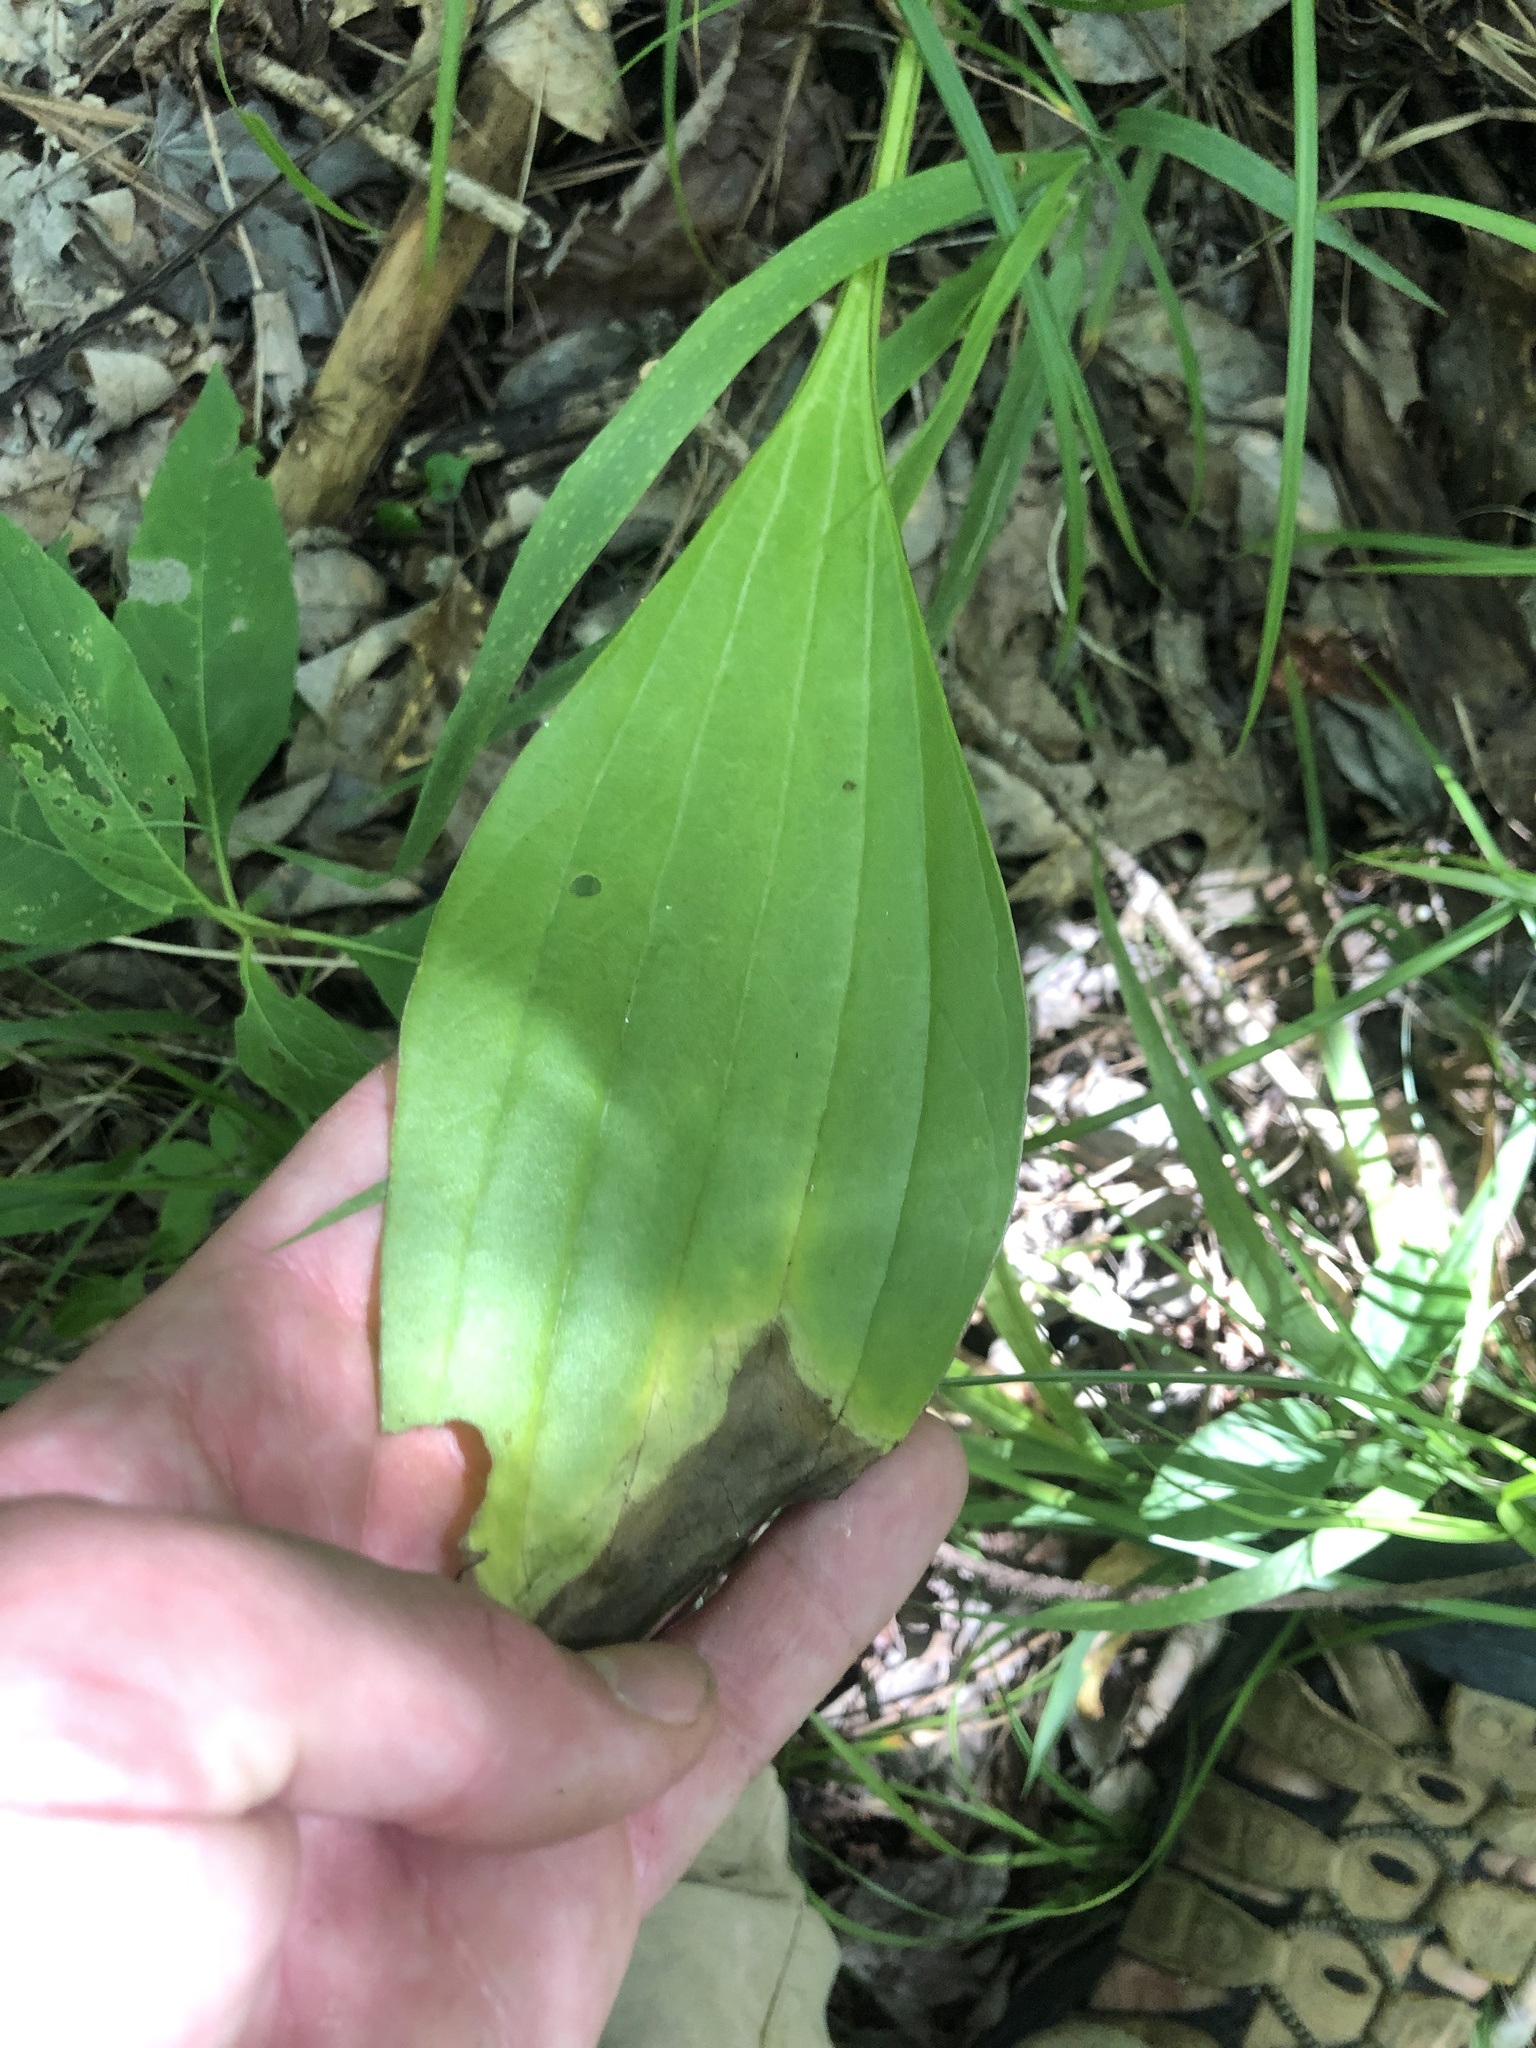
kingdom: Plantae
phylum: Tracheophyta
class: Magnoliopsida
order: Asterales
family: Asteraceae
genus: Arnoglossum
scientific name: Arnoglossum plantagineum
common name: Groove-stemmed indian-plantain
